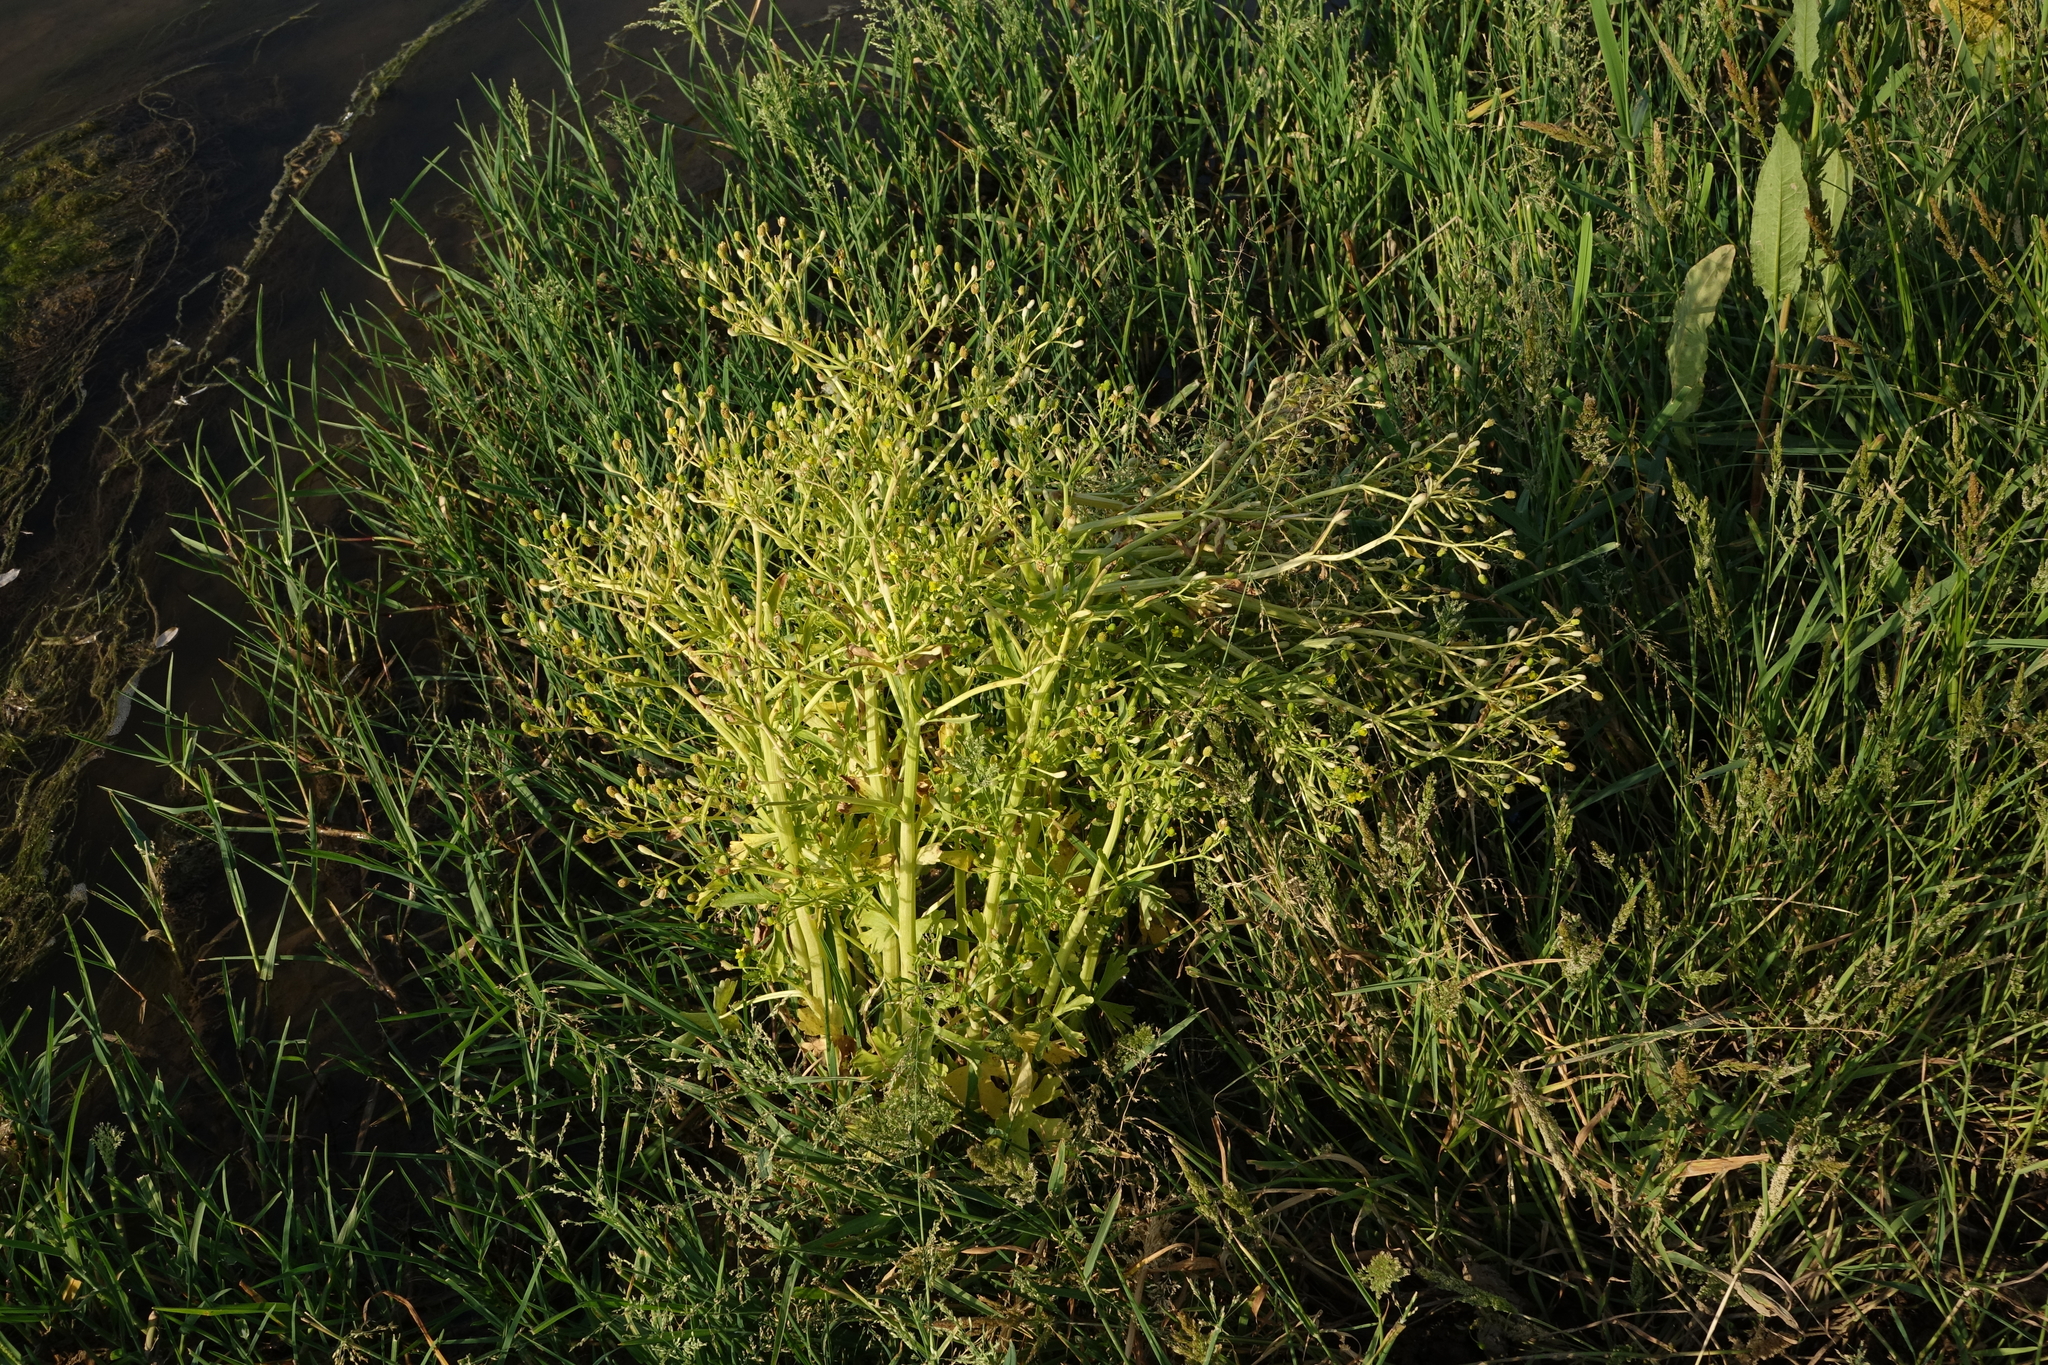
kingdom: Plantae
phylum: Tracheophyta
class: Magnoliopsida
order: Ranunculales
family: Ranunculaceae
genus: Ranunculus
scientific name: Ranunculus sceleratus
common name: Celery-leaved buttercup
